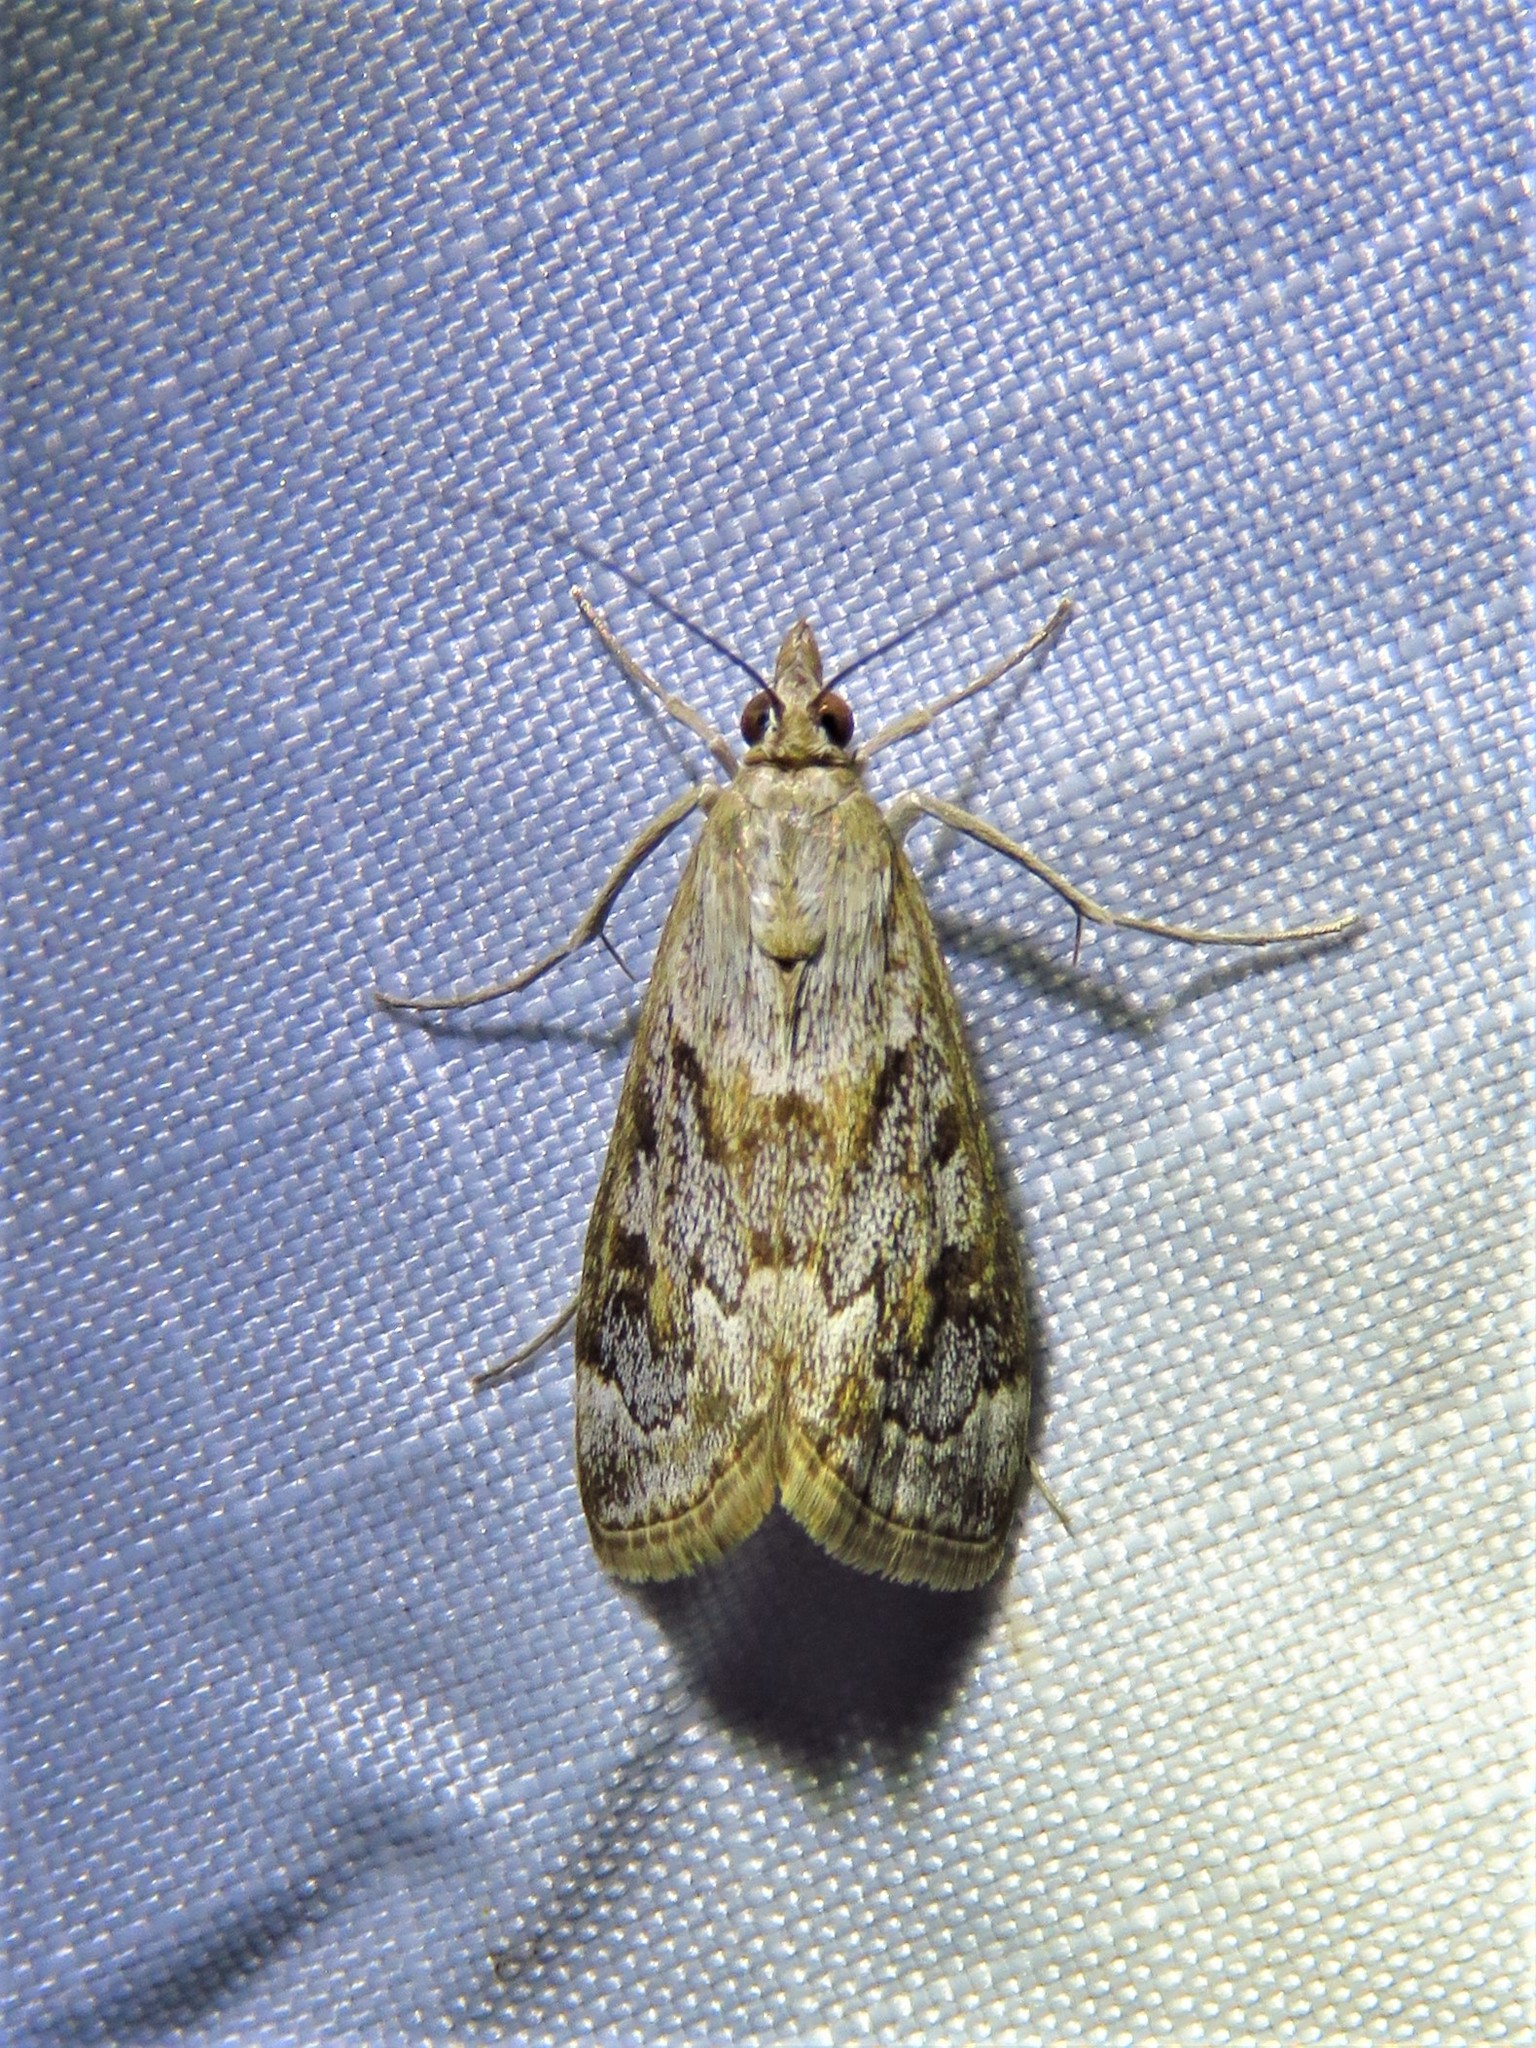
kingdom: Animalia
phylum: Arthropoda
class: Insecta
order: Lepidoptera
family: Crambidae
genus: Loxostege
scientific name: Loxostege allectalis
